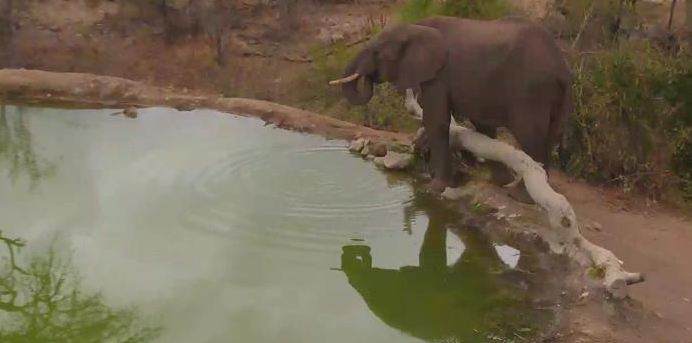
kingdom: Animalia
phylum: Chordata
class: Mammalia
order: Proboscidea
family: Elephantidae
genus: Loxodonta
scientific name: Loxodonta africana
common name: African elephant
